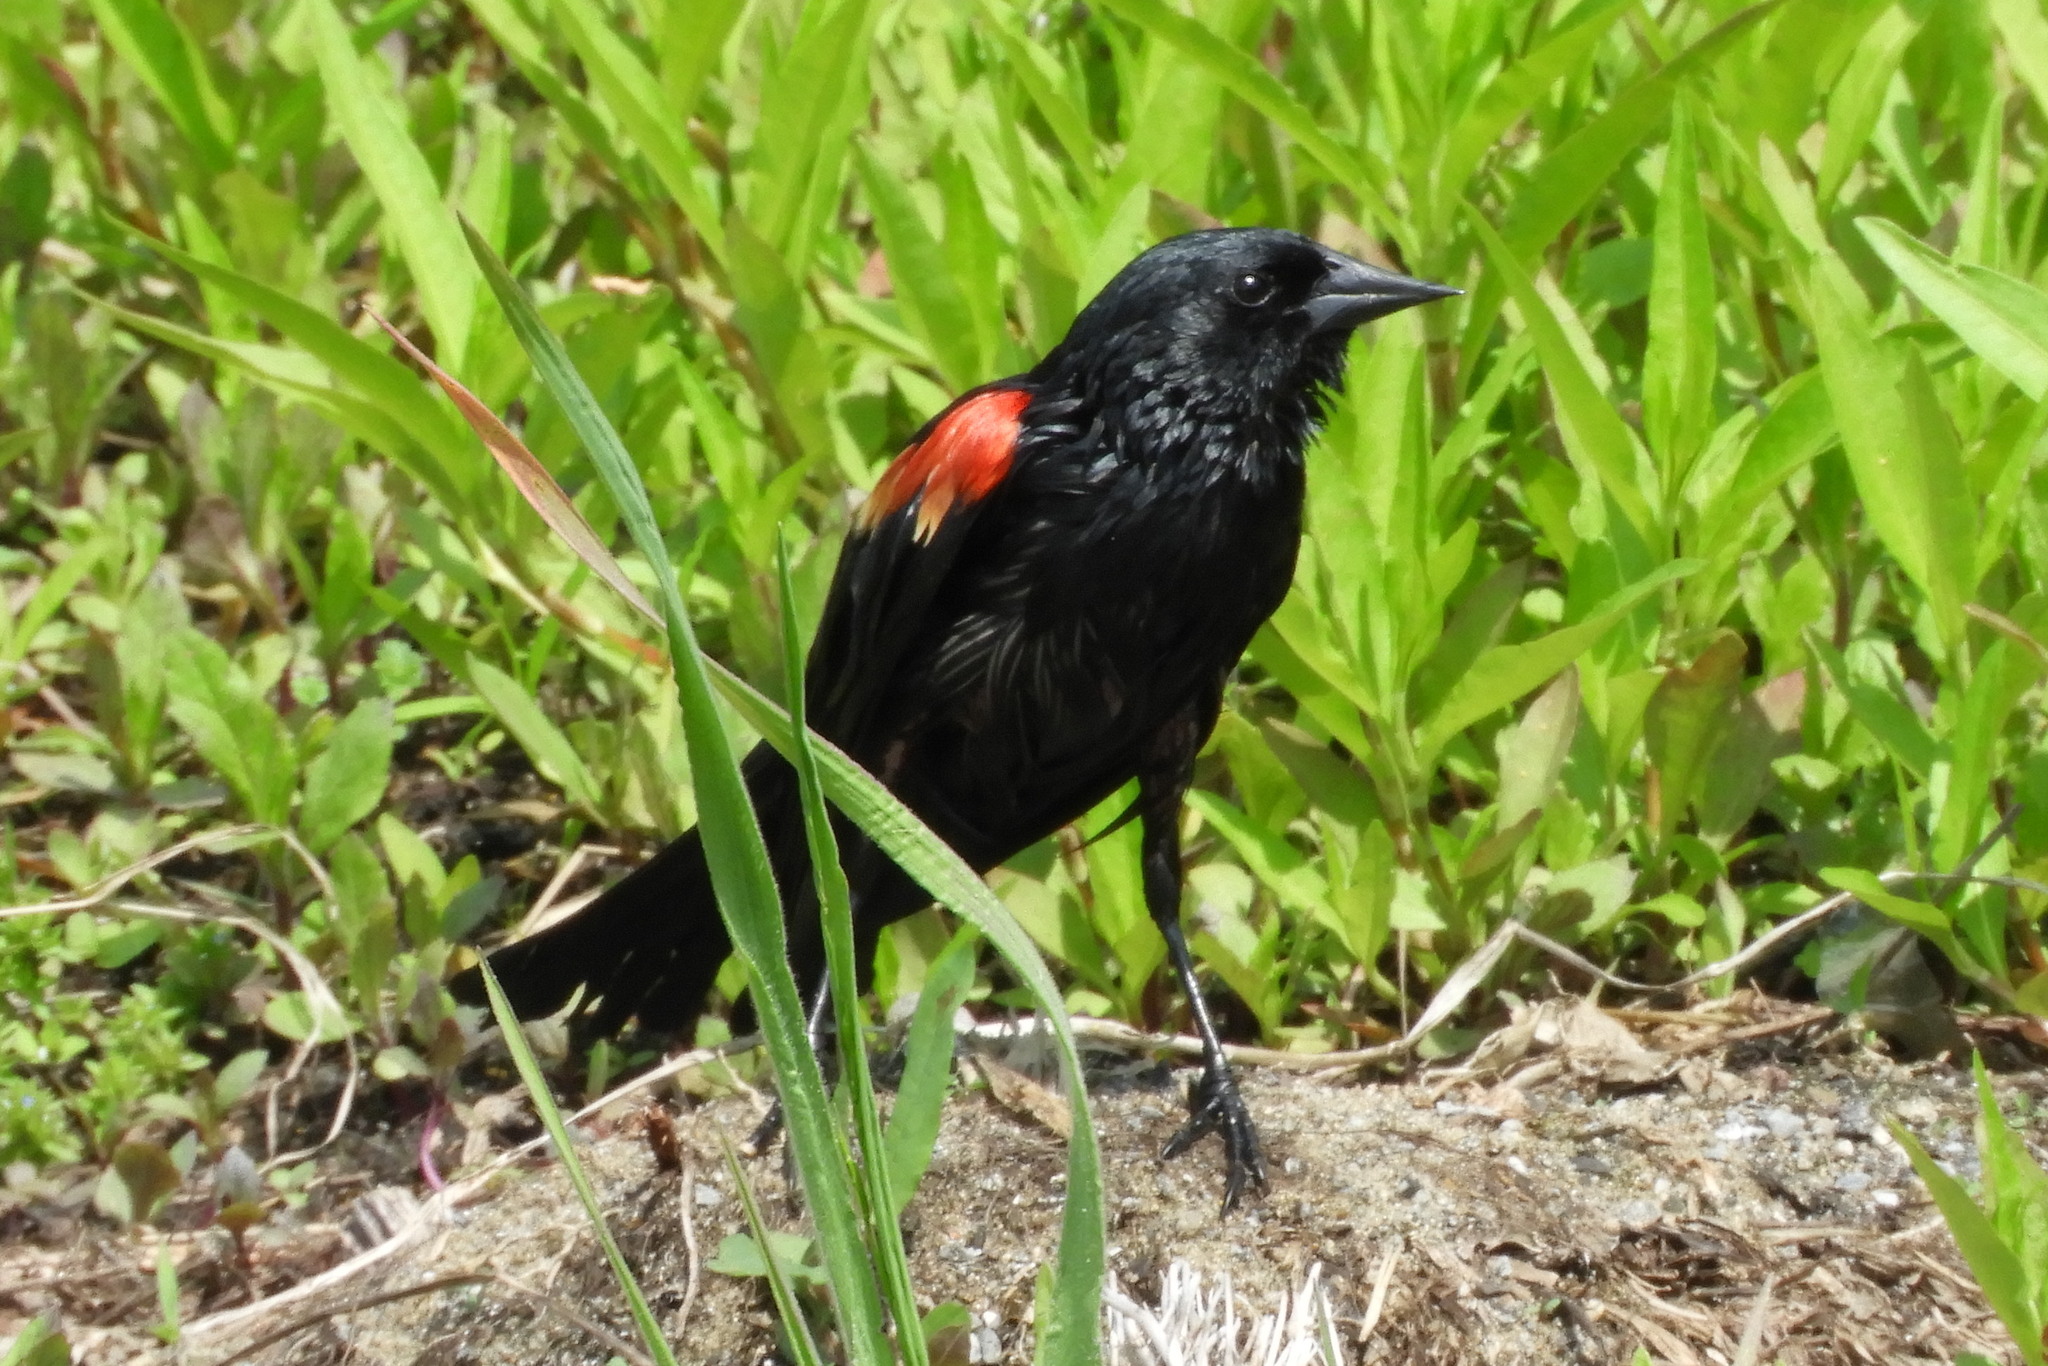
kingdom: Animalia
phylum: Chordata
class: Aves
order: Passeriformes
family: Icteridae
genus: Agelaius
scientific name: Agelaius phoeniceus
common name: Red-winged blackbird
